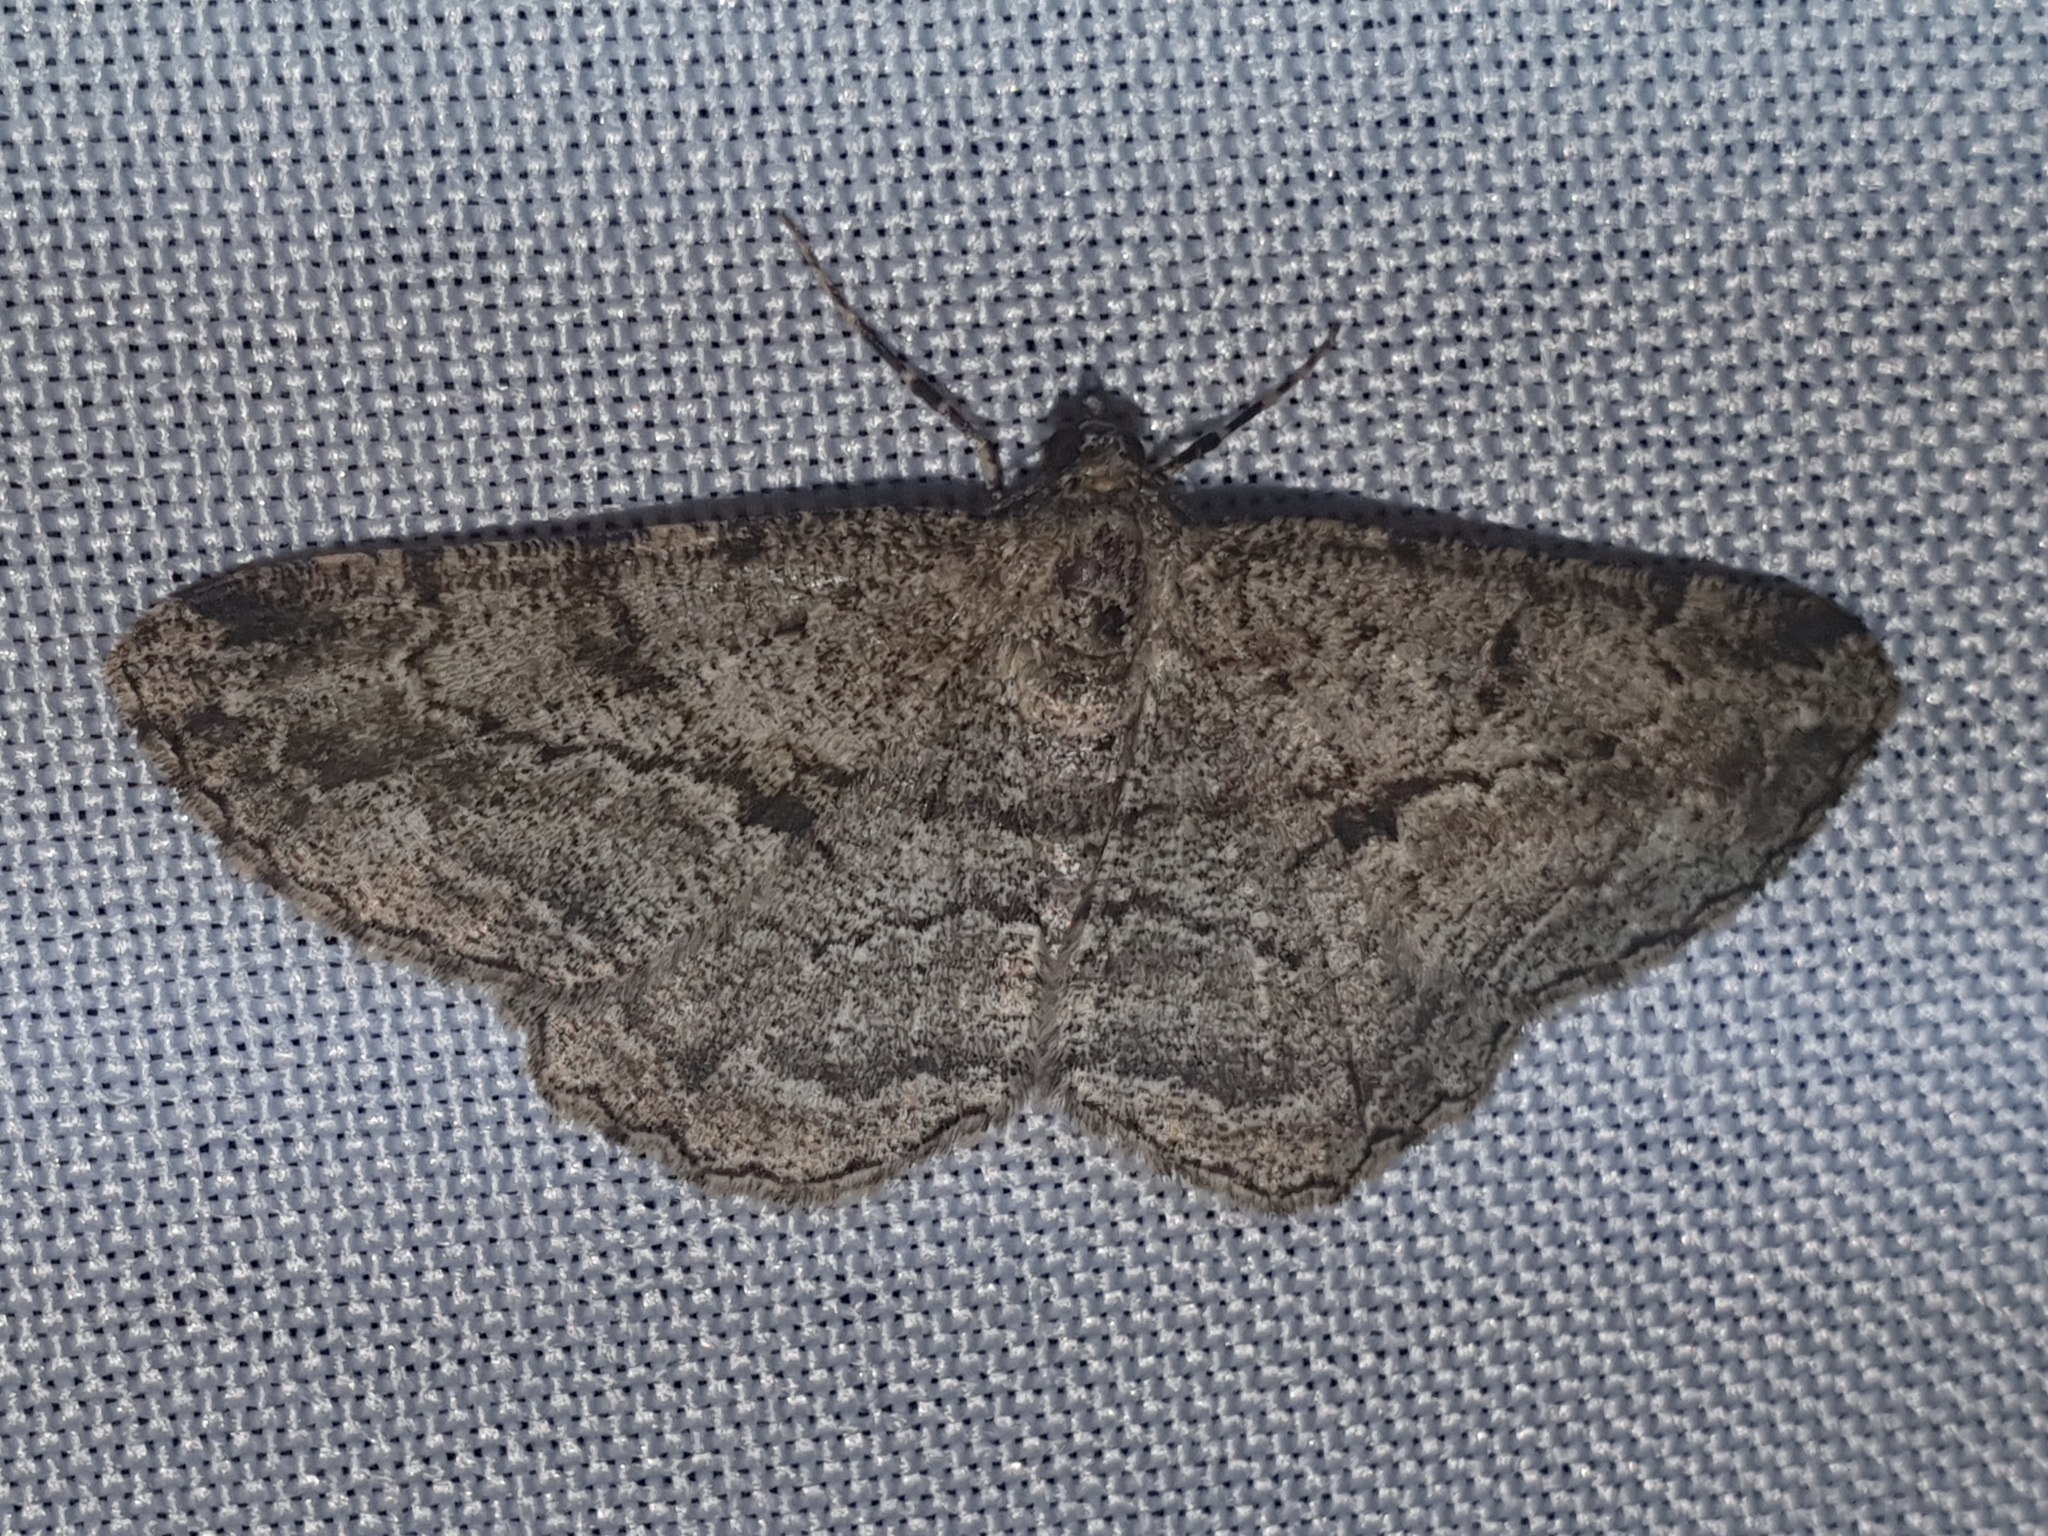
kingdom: Animalia
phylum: Arthropoda
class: Insecta
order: Lepidoptera
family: Geometridae
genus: Peribatodes
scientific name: Peribatodes rhomboidaria
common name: Willow beauty
